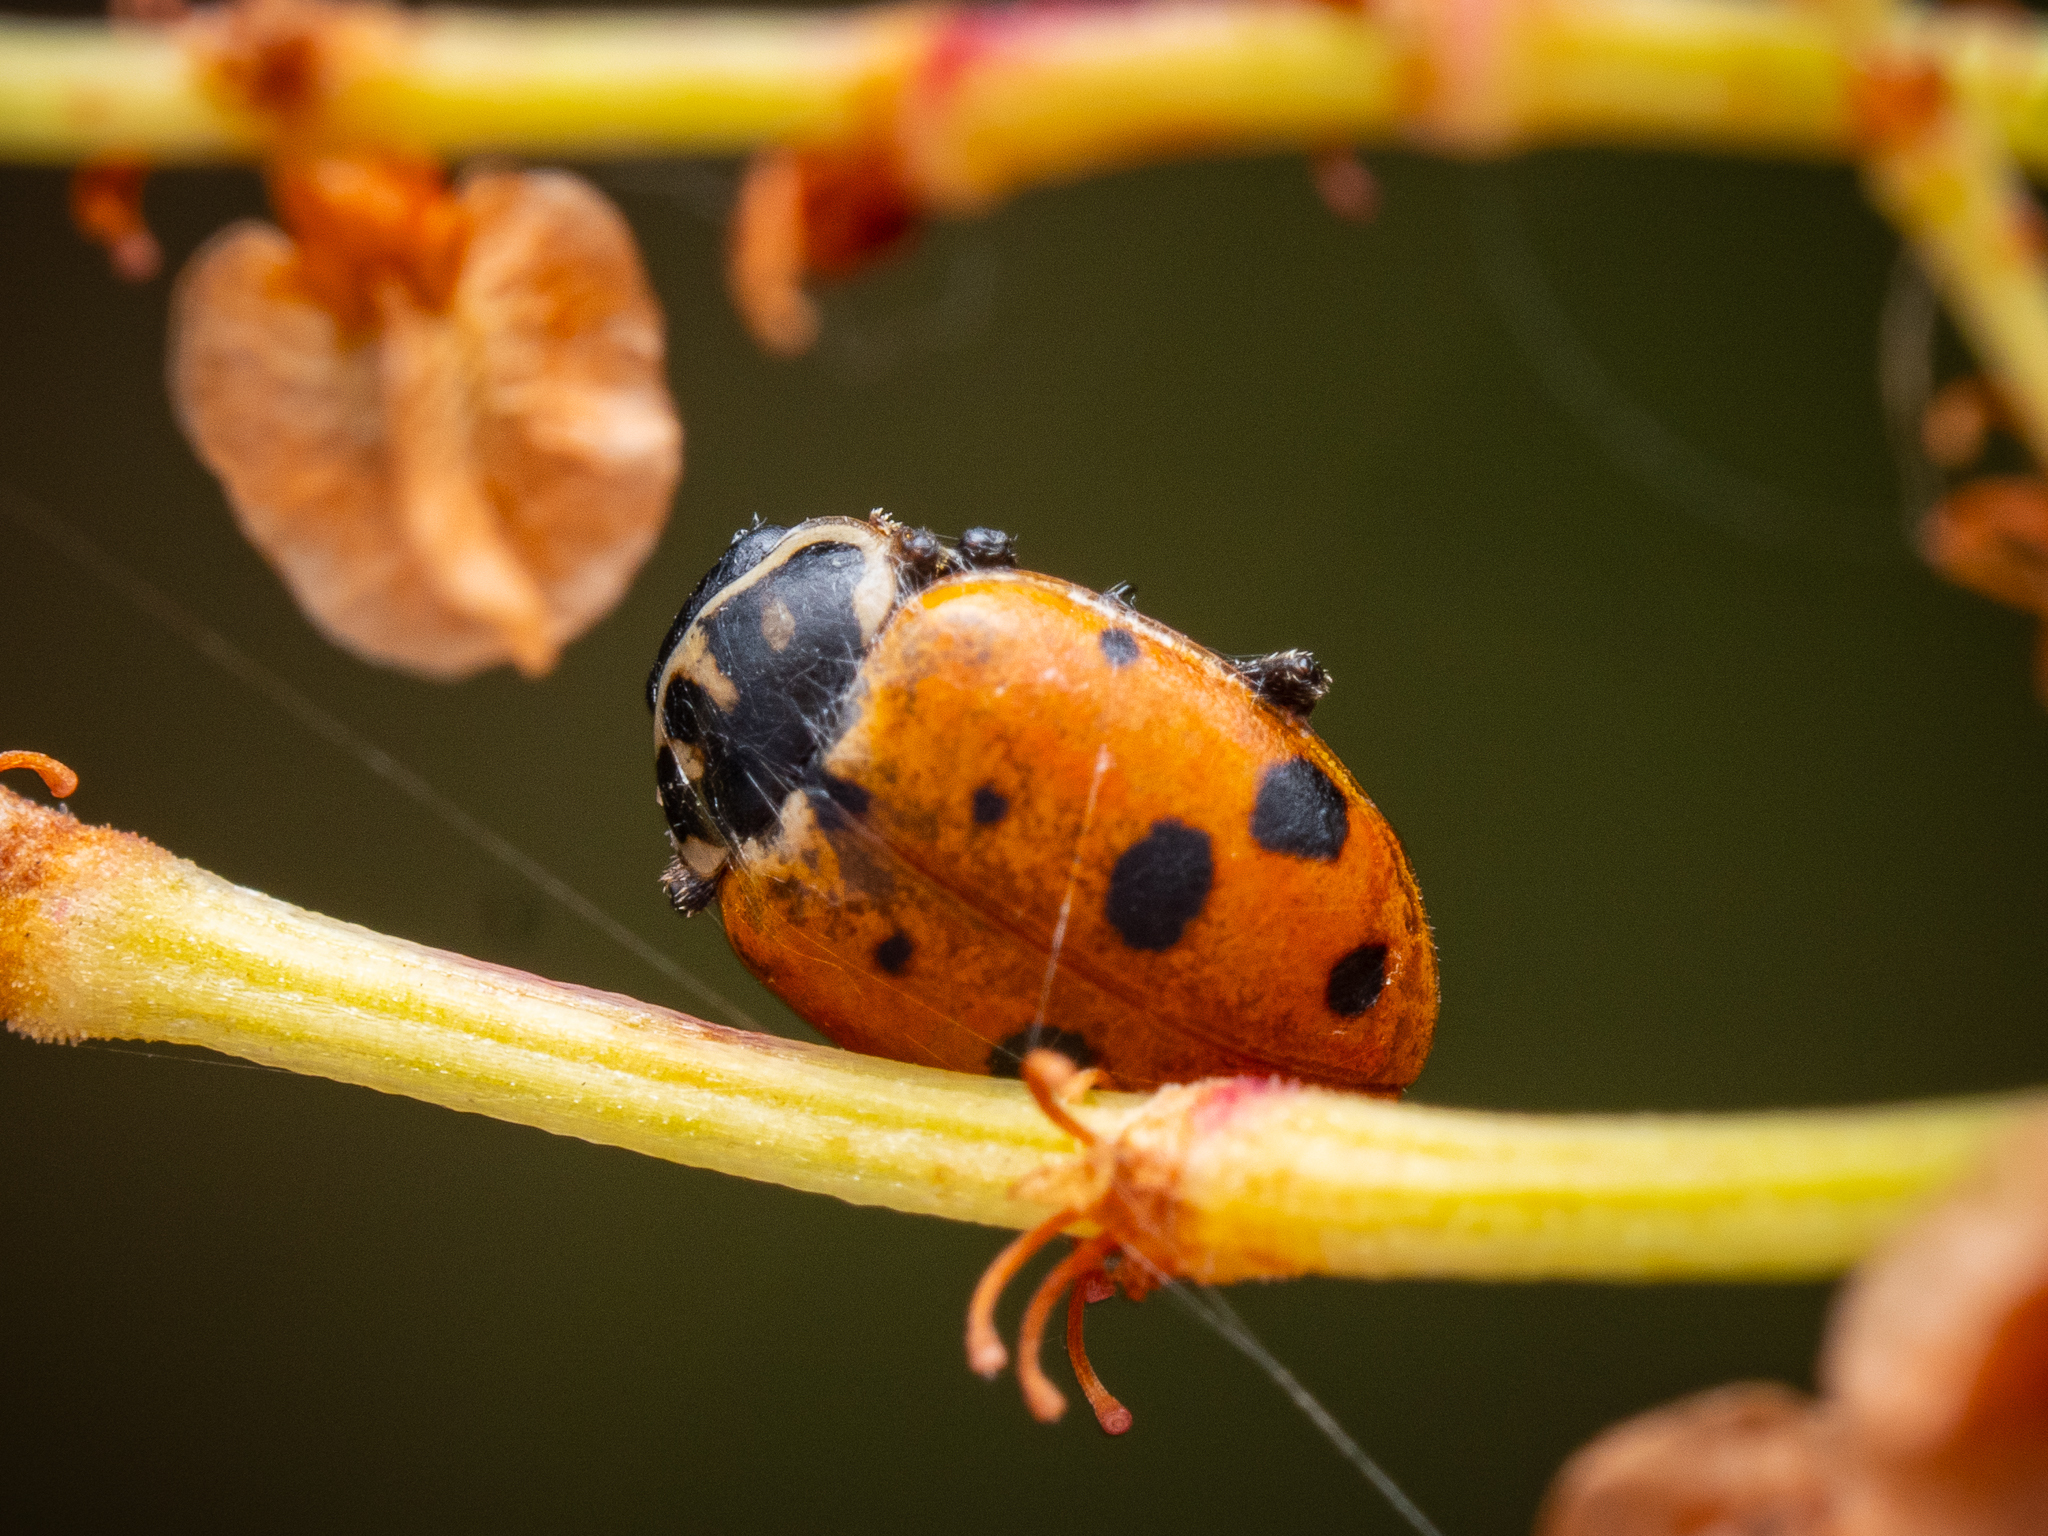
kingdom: Animalia
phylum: Arthropoda
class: Insecta
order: Coleoptera
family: Coccinellidae
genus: Hippodamia
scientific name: Hippodamia variegata
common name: Ladybird beetle
